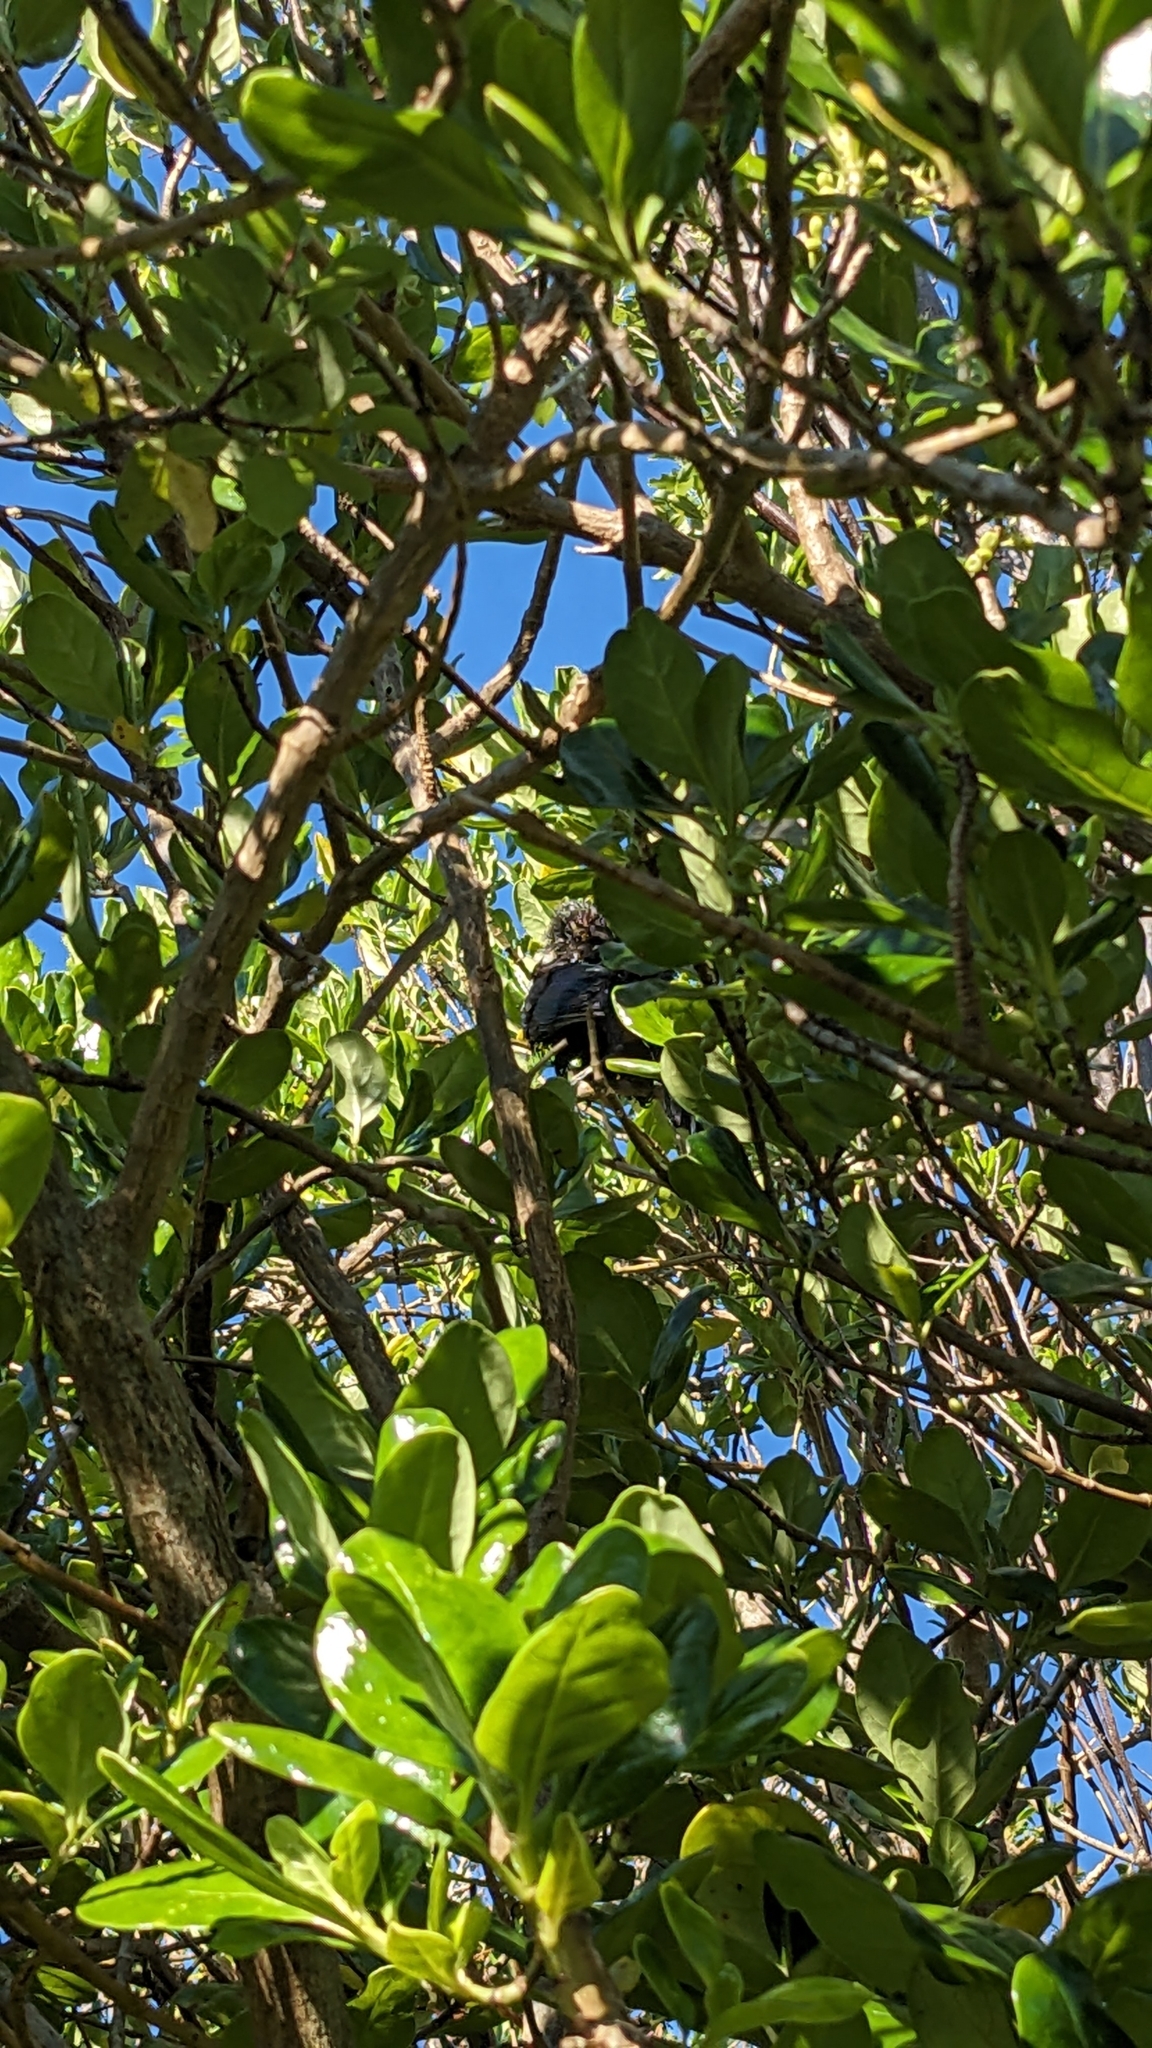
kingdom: Animalia
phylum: Chordata
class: Aves
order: Passeriformes
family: Meliphagidae
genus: Prosthemadera
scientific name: Prosthemadera novaeseelandiae
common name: Tui
